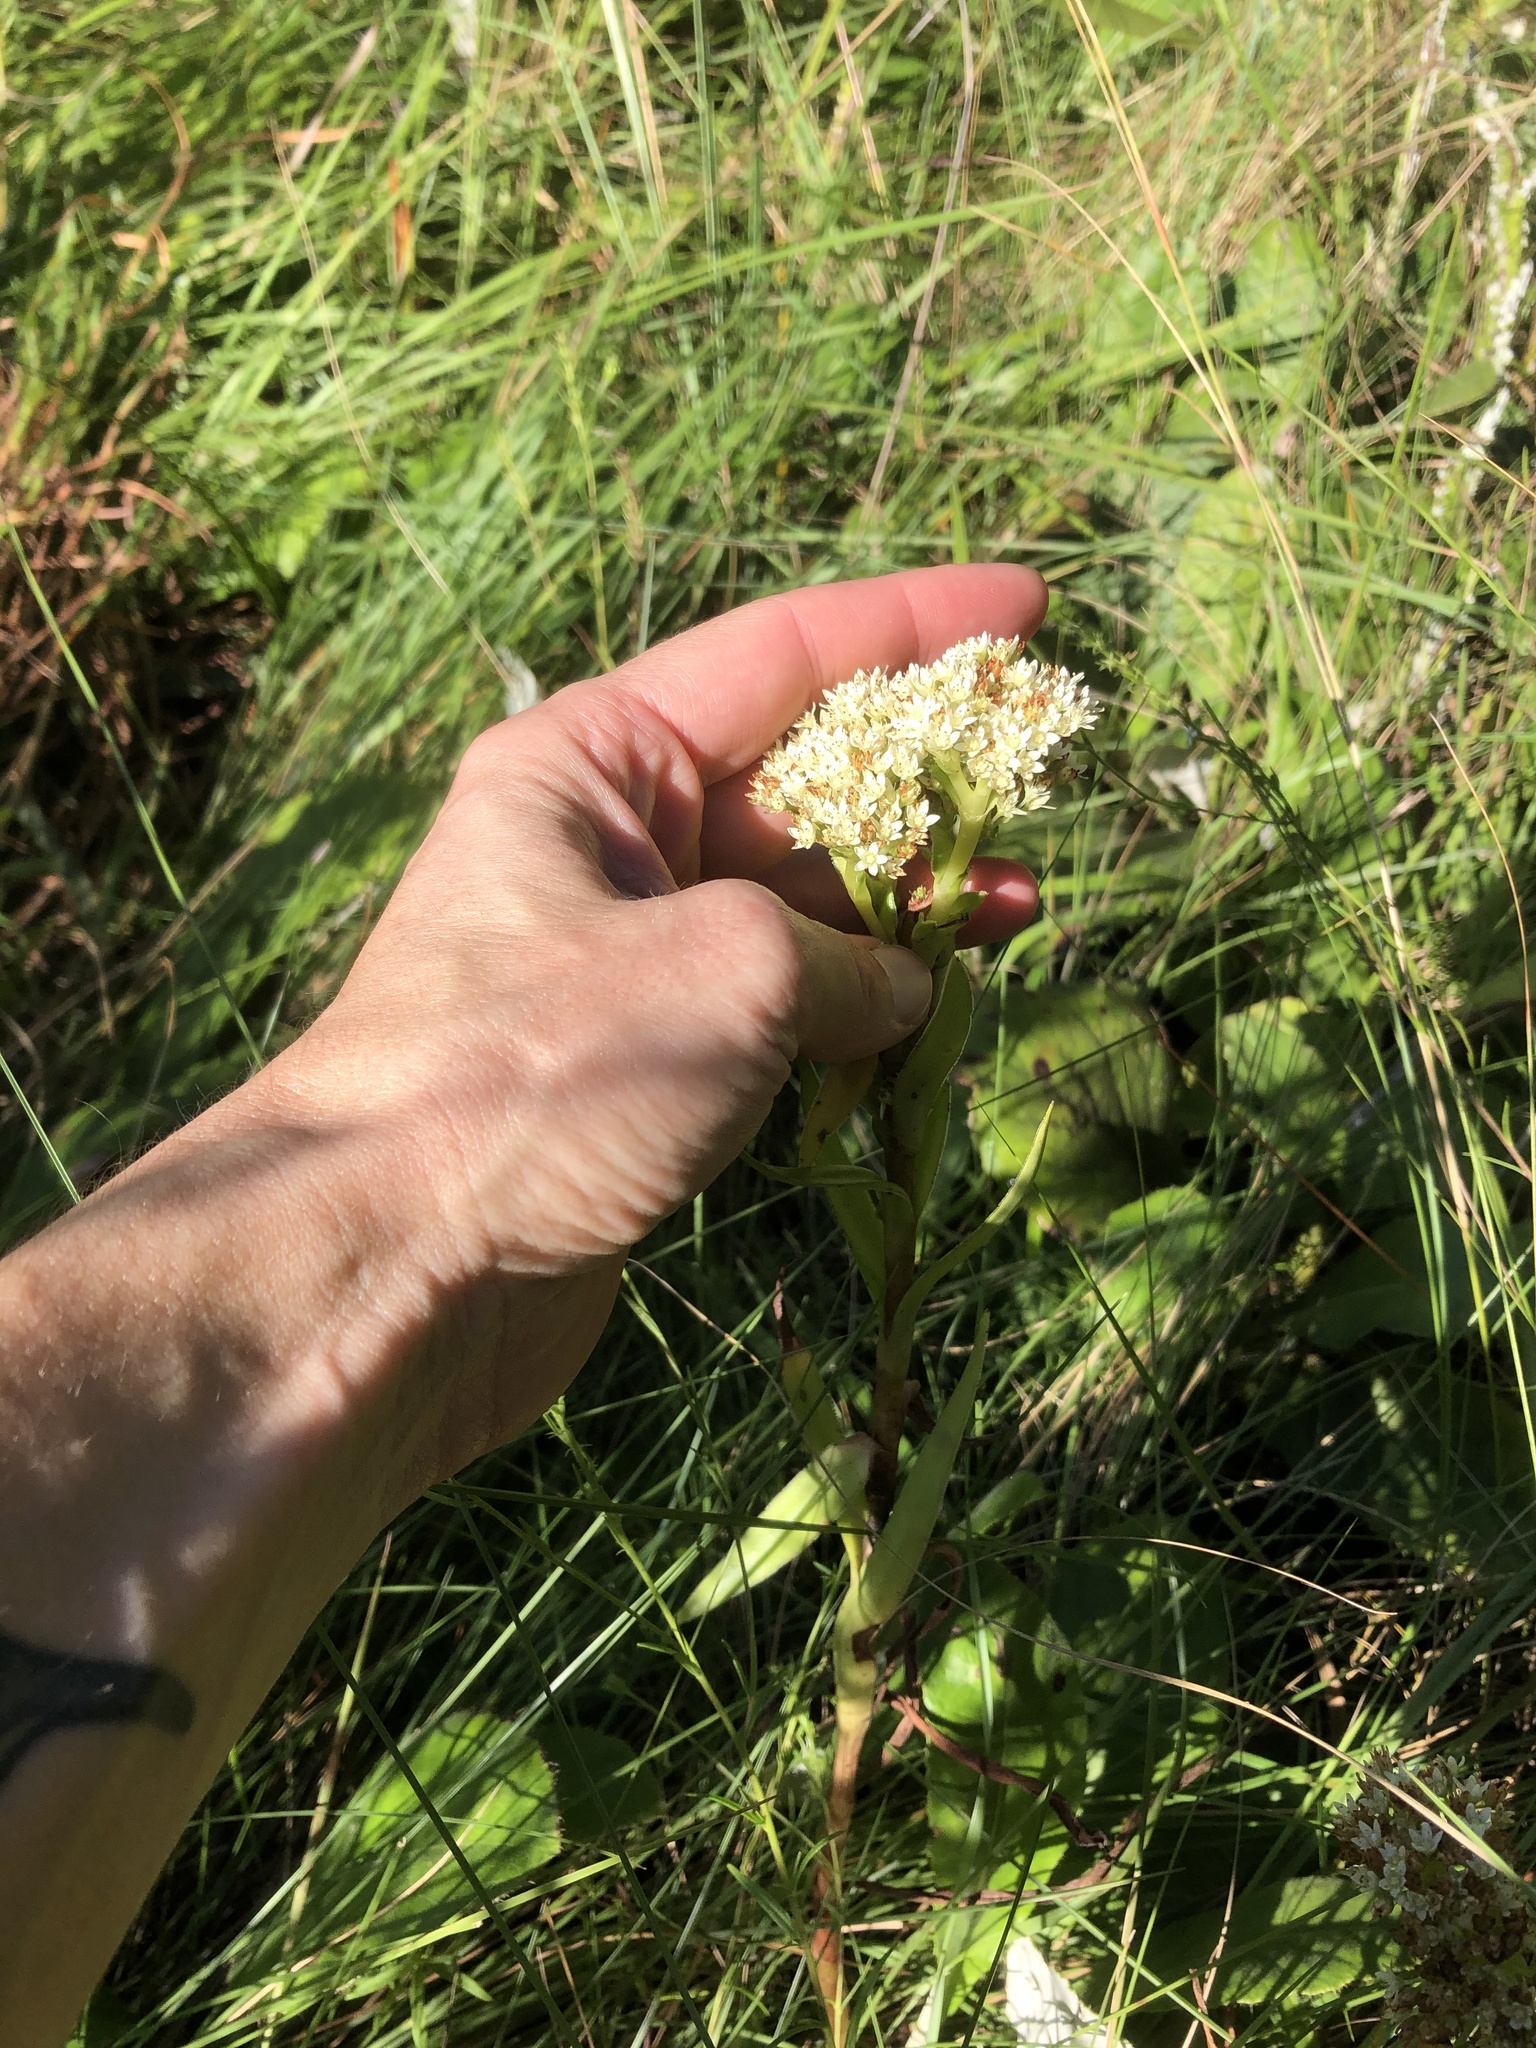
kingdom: Plantae
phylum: Tracheophyta
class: Magnoliopsida
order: Saxifragales
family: Crassulaceae
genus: Crassula
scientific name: Crassula vaginata
